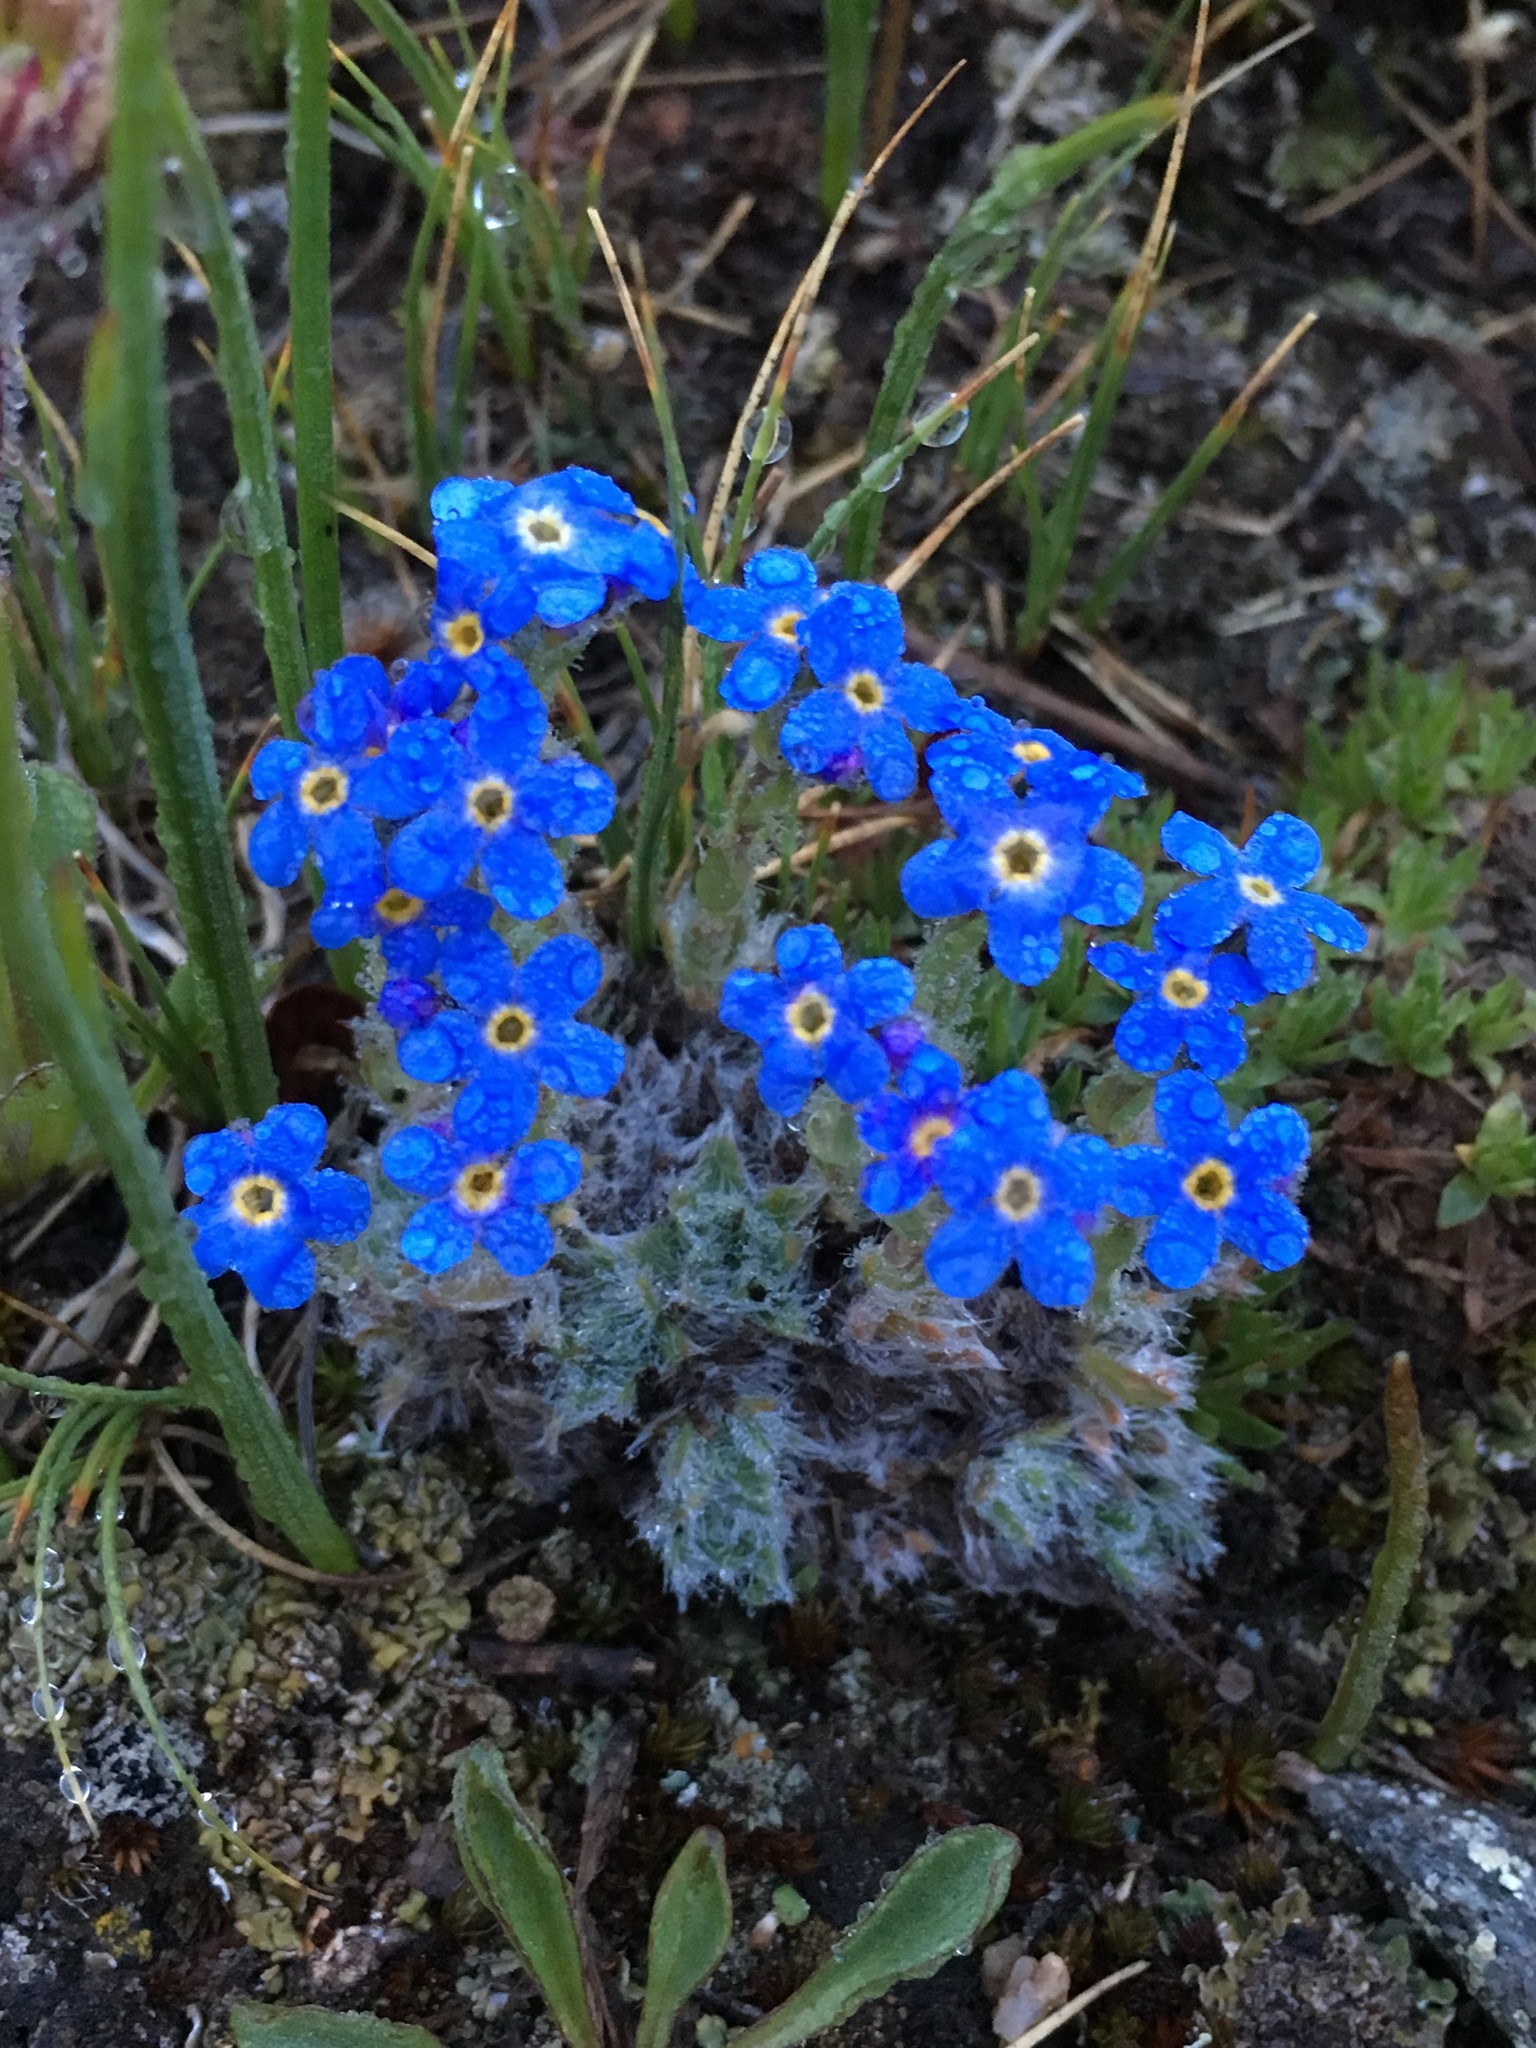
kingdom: Plantae
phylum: Tracheophyta
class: Magnoliopsida
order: Boraginales
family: Boraginaceae
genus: Eritrichium
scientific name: Eritrichium argenteum
